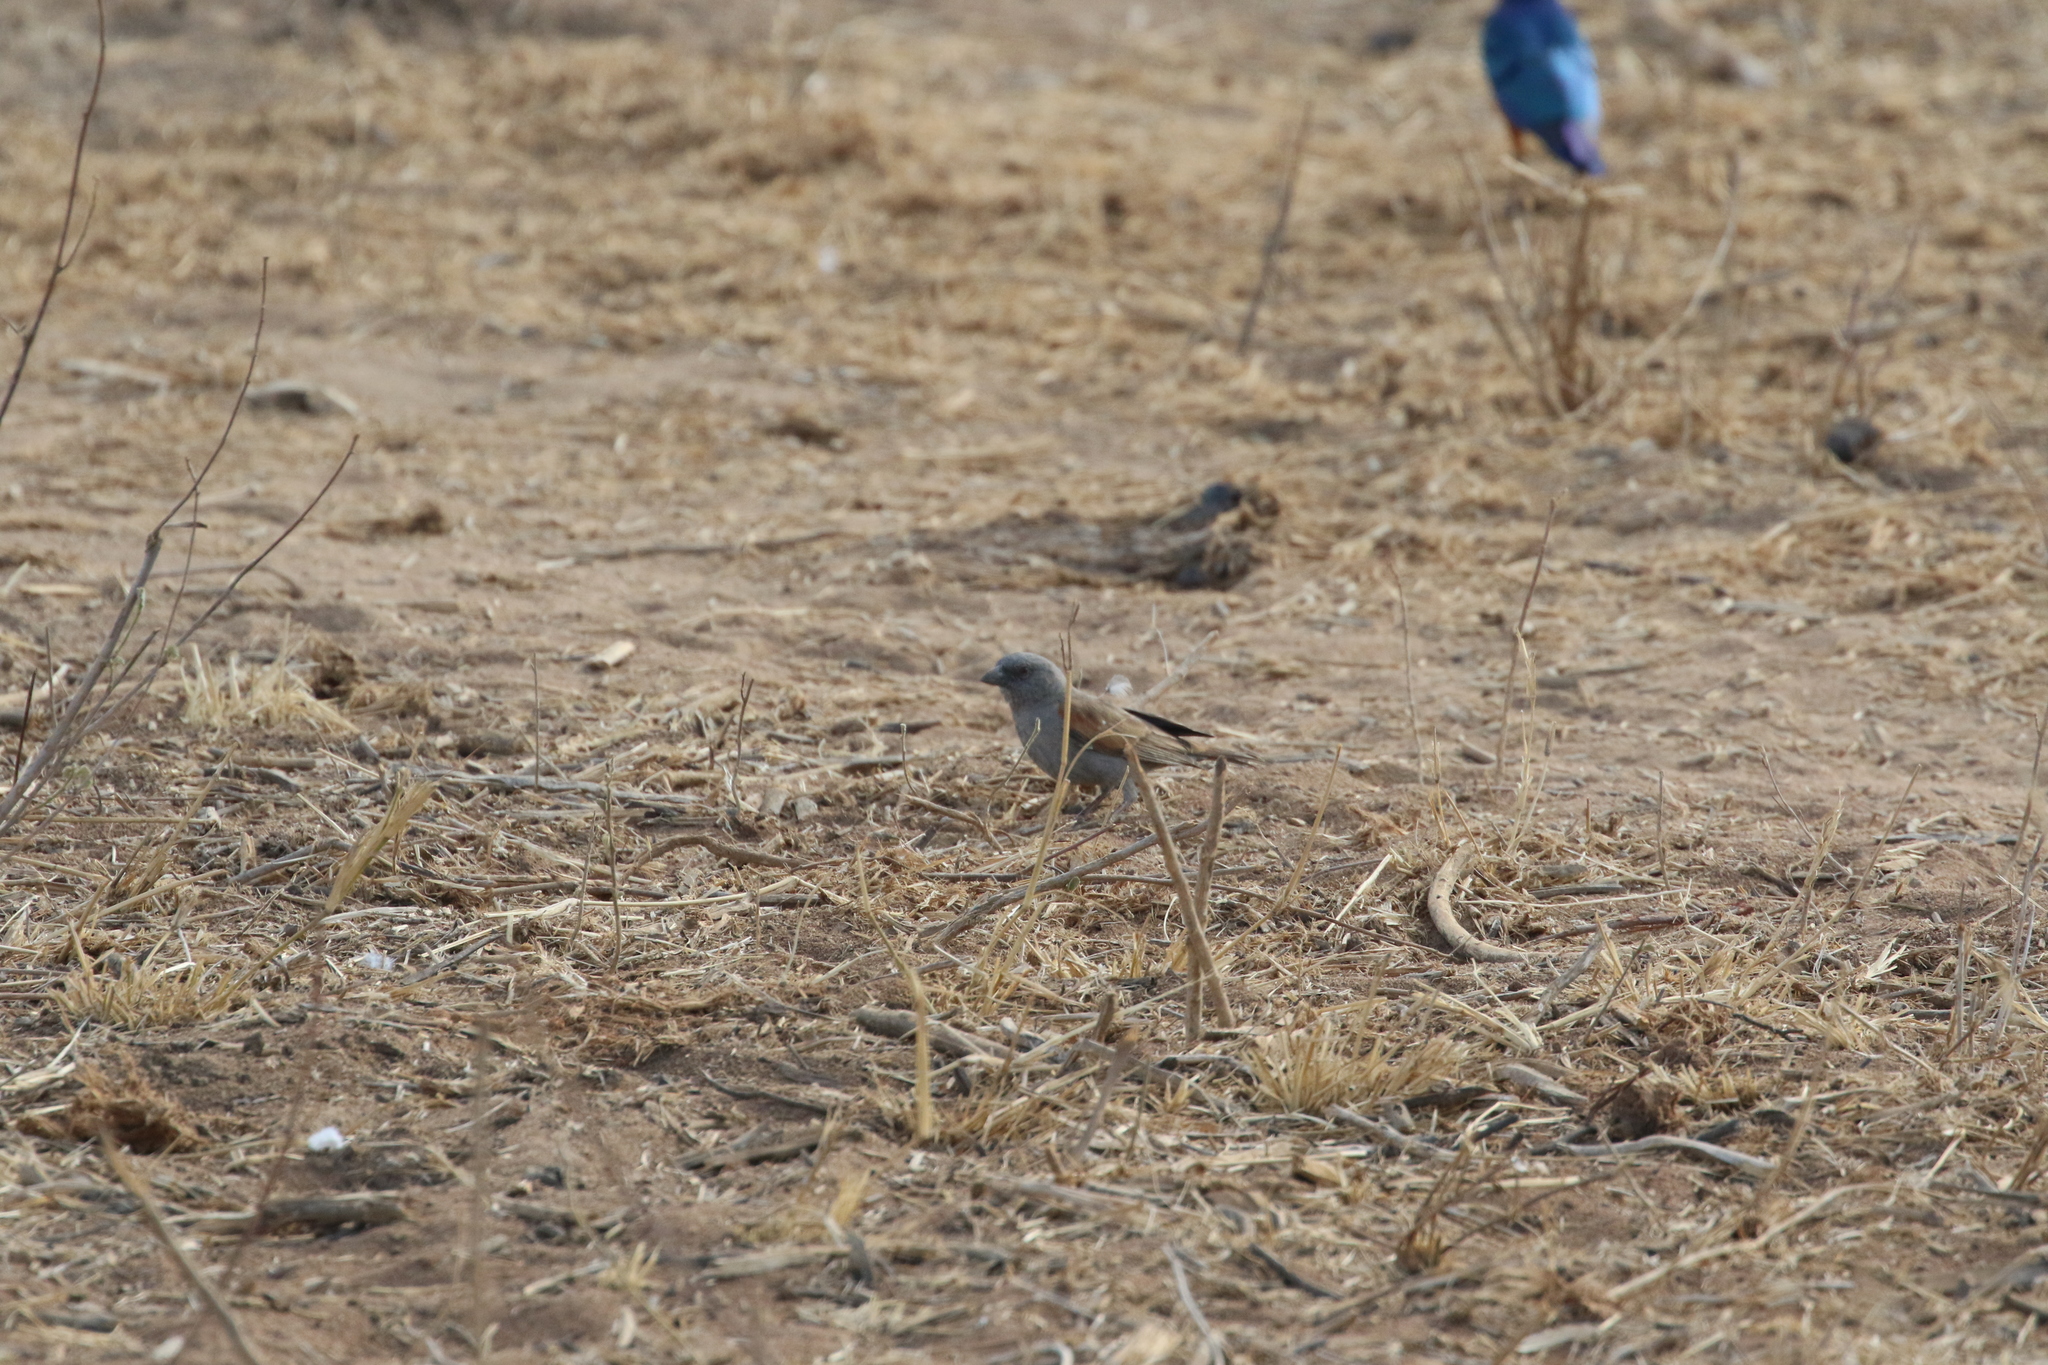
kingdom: Animalia
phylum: Chordata
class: Aves
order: Passeriformes
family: Passeridae
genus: Passer
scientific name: Passer griseus
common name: Northern grey-headed sparrow
